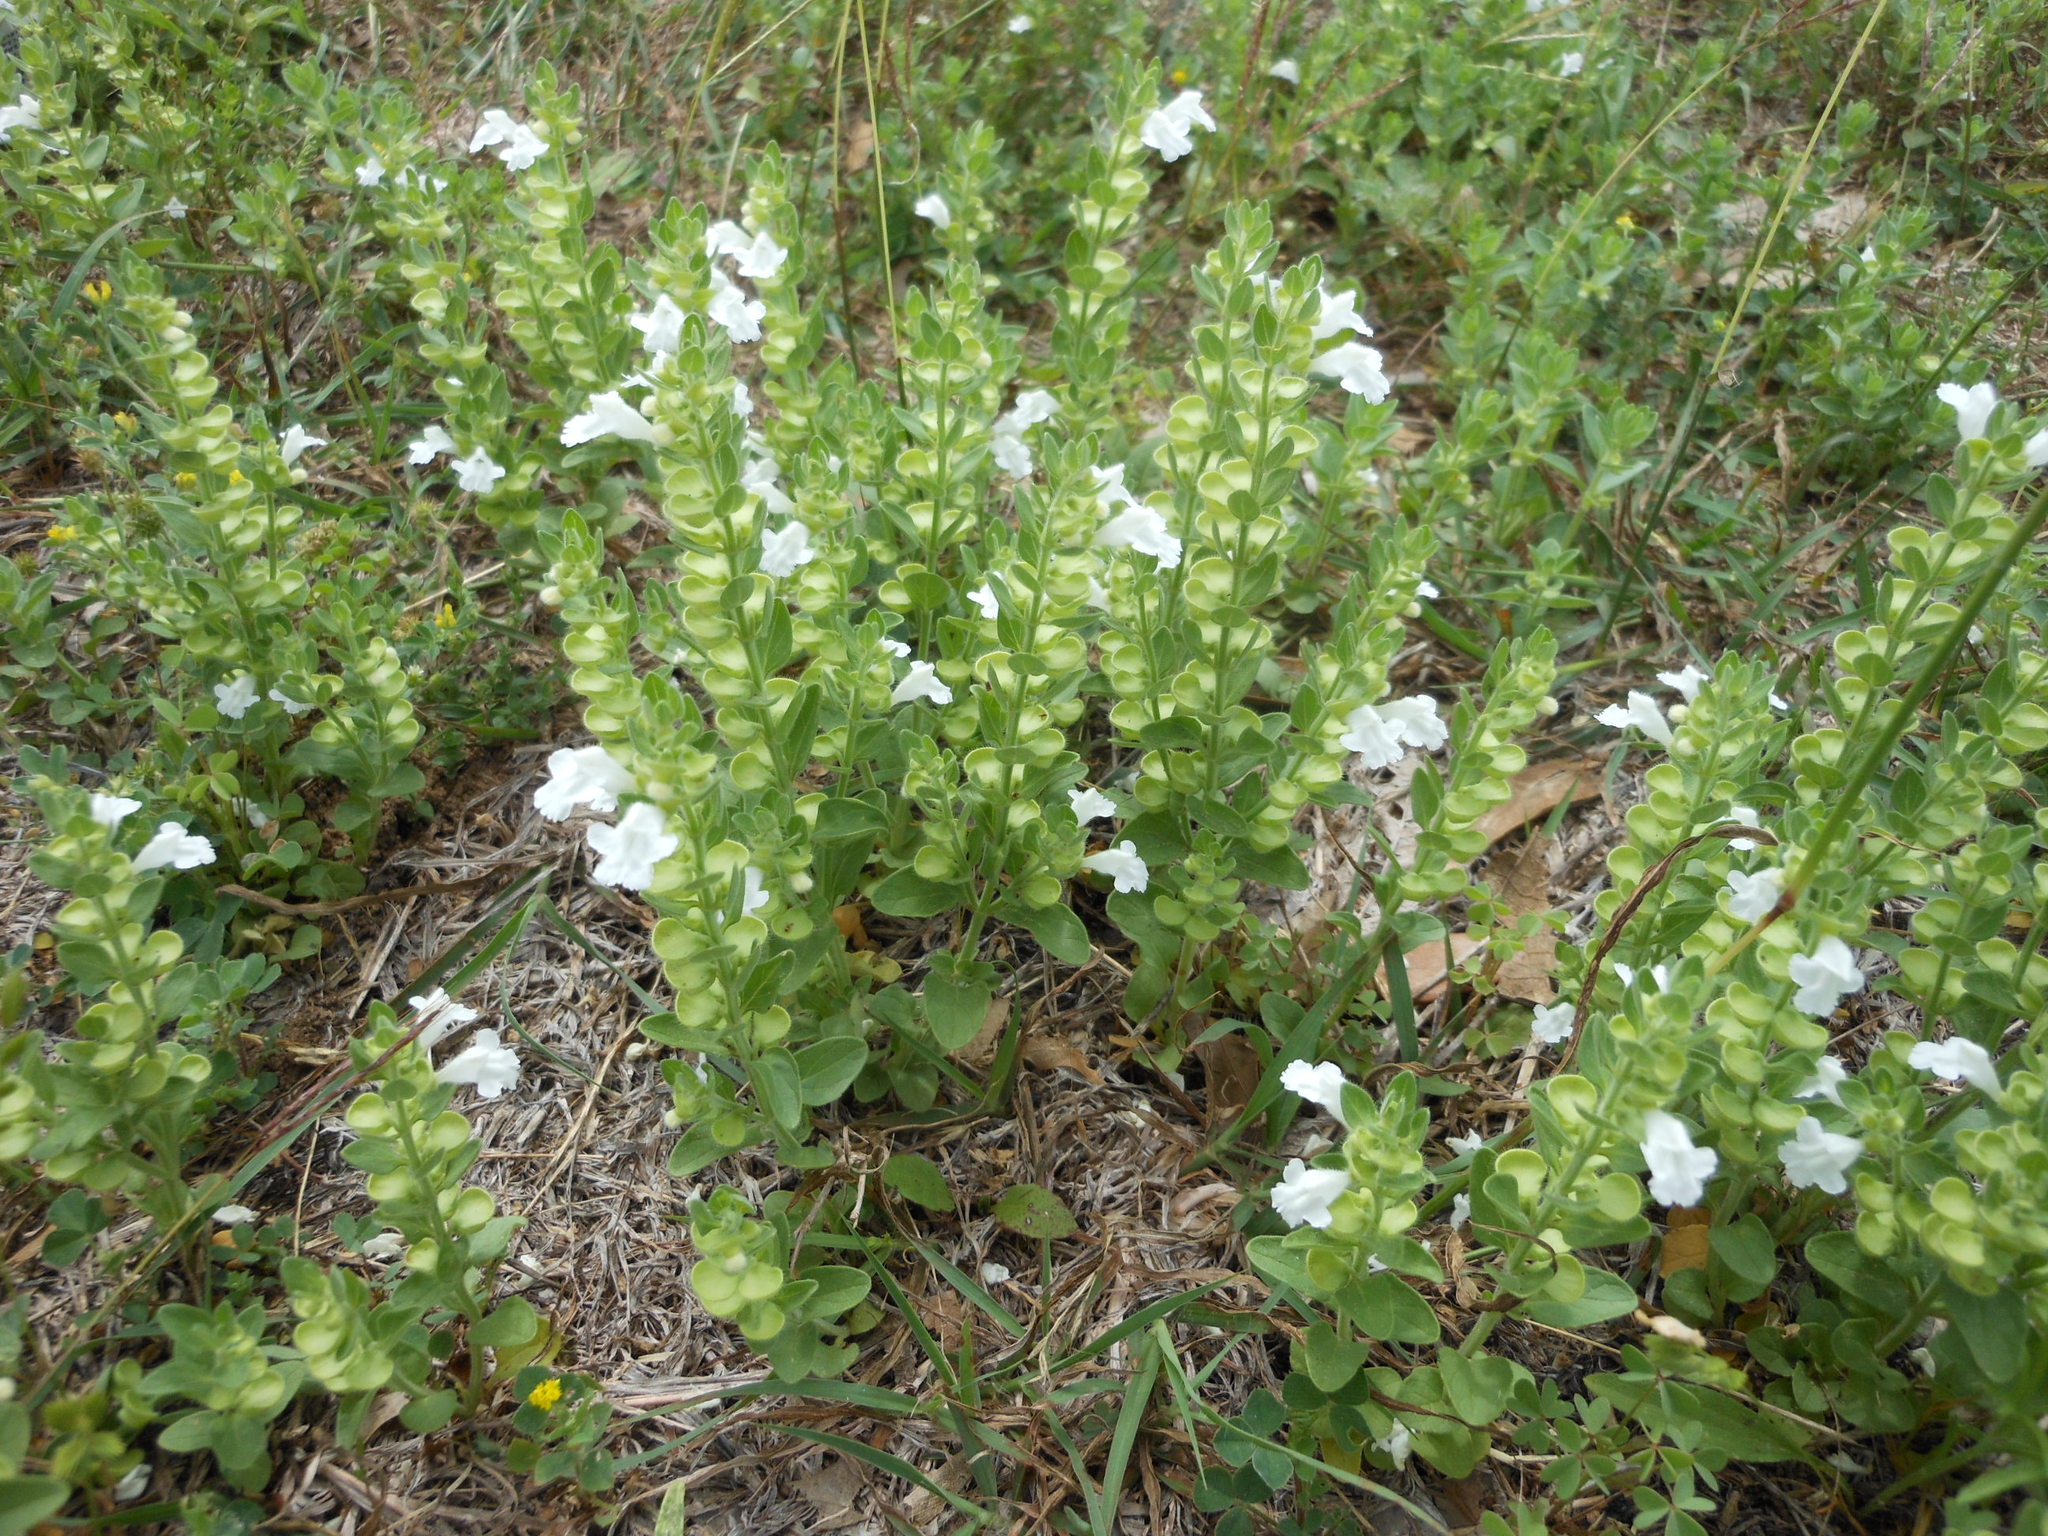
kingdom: Plantae
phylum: Tracheophyta
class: Magnoliopsida
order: Lamiales
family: Lamiaceae
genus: Scutellaria
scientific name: Scutellaria drummondii
